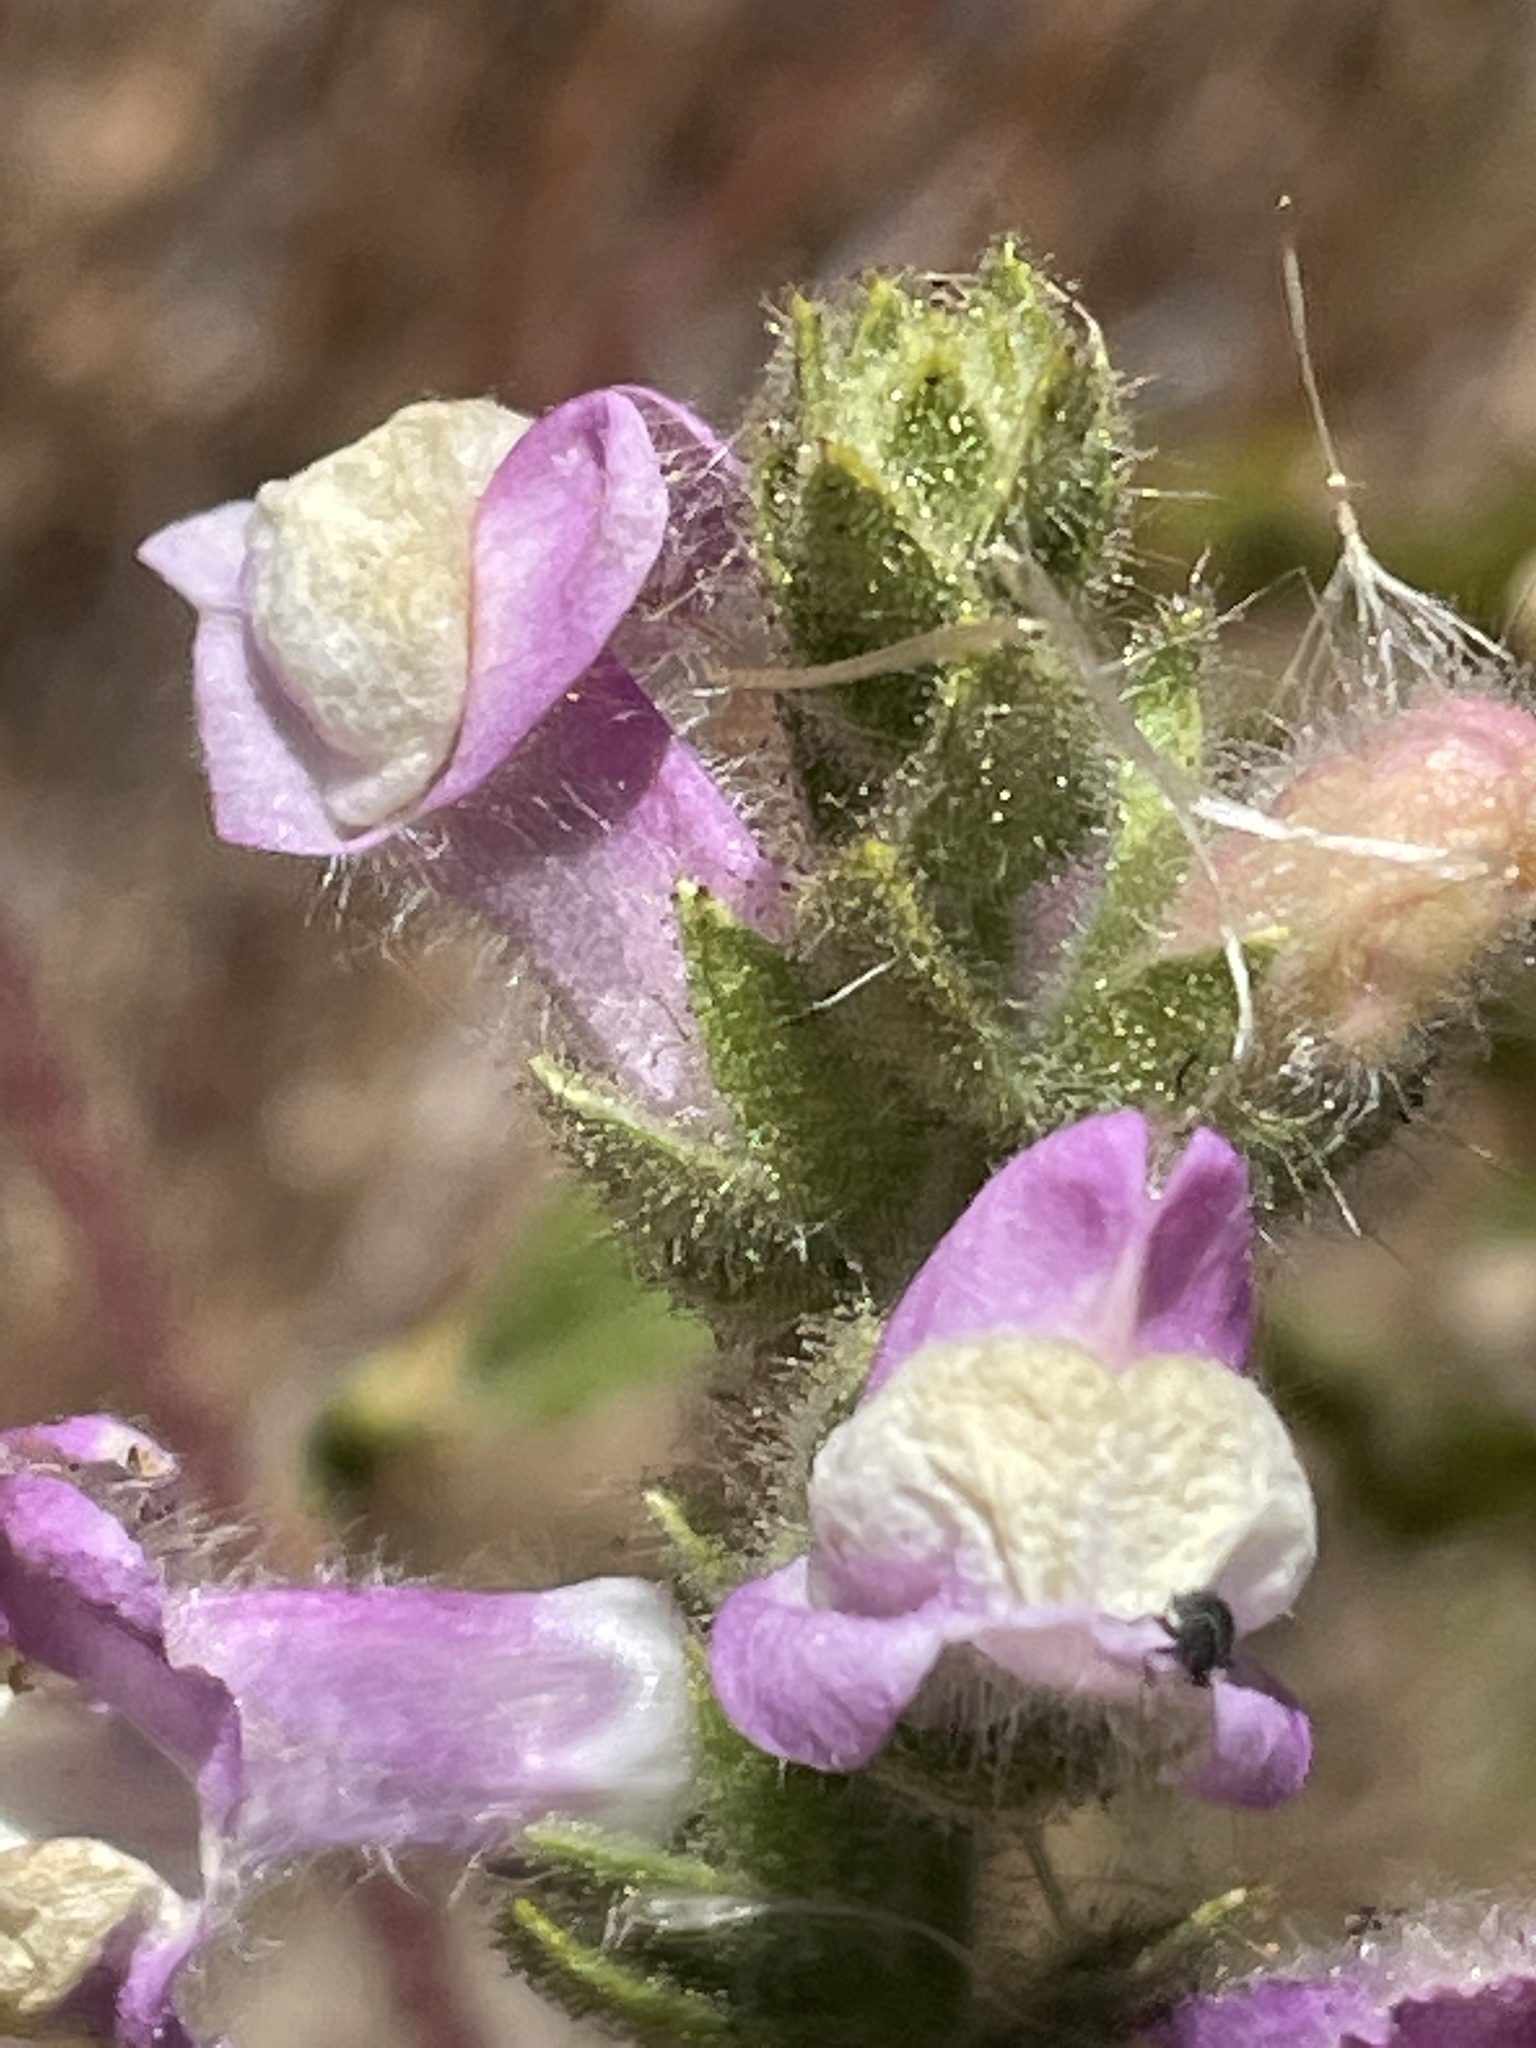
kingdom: Plantae
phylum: Tracheophyta
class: Magnoliopsida
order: Lamiales
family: Plantaginaceae
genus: Sairocarpus
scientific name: Sairocarpus multiflorus
